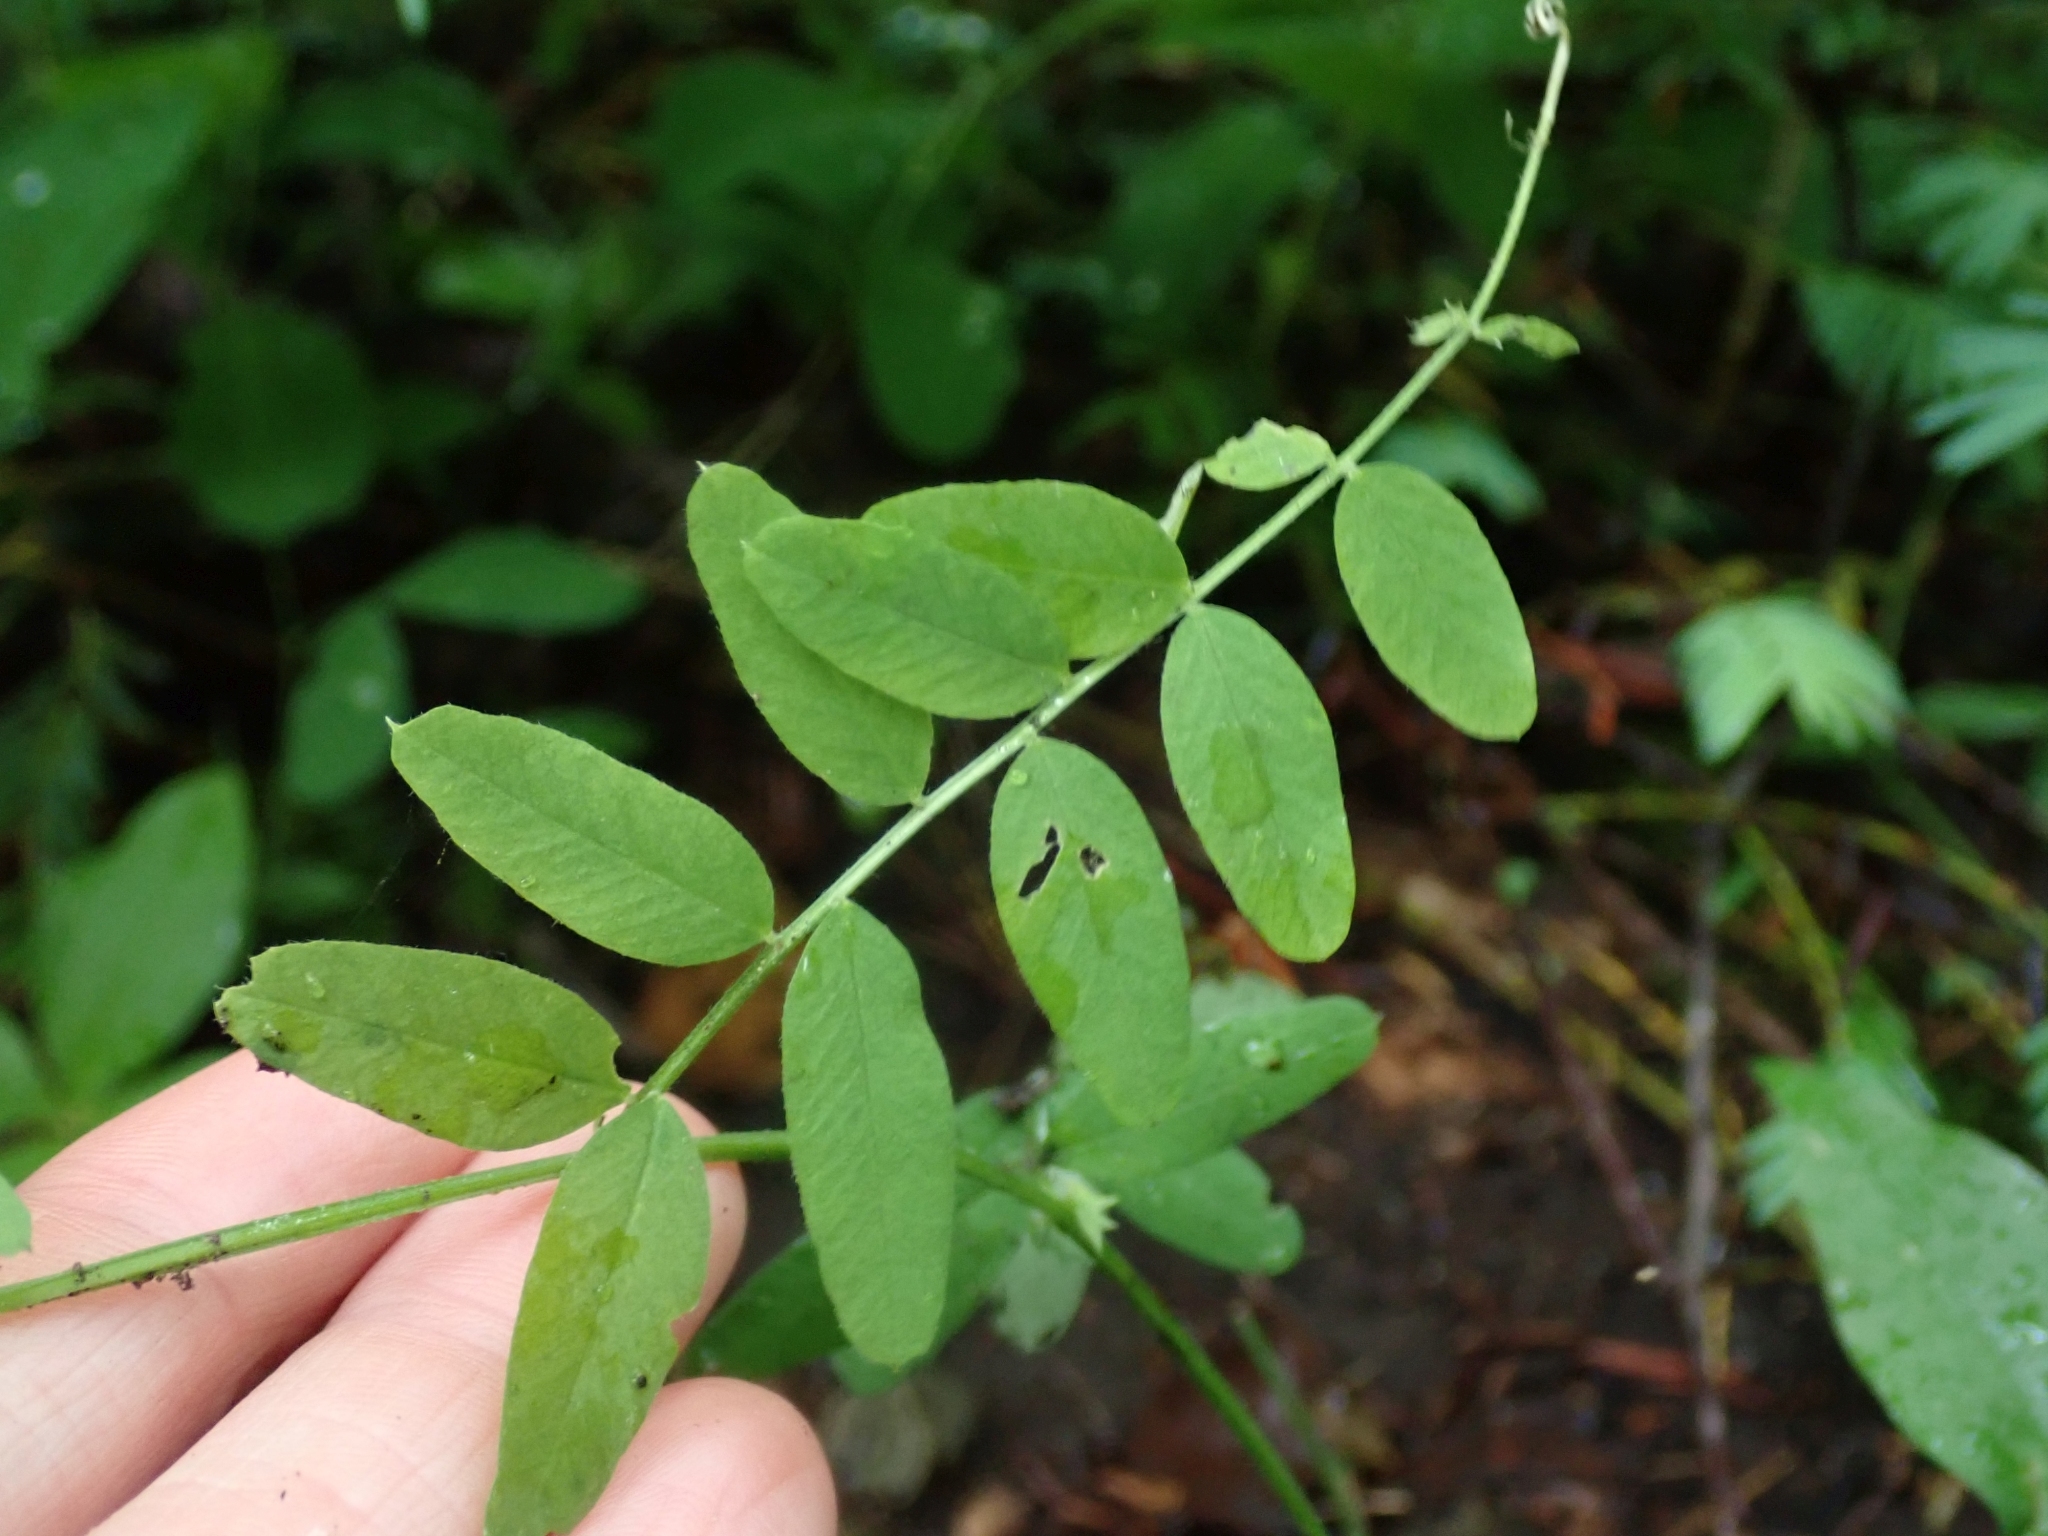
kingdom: Plantae
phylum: Tracheophyta
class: Magnoliopsida
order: Fabales
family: Fabaceae
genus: Vicia
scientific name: Vicia americana
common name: American vetch
